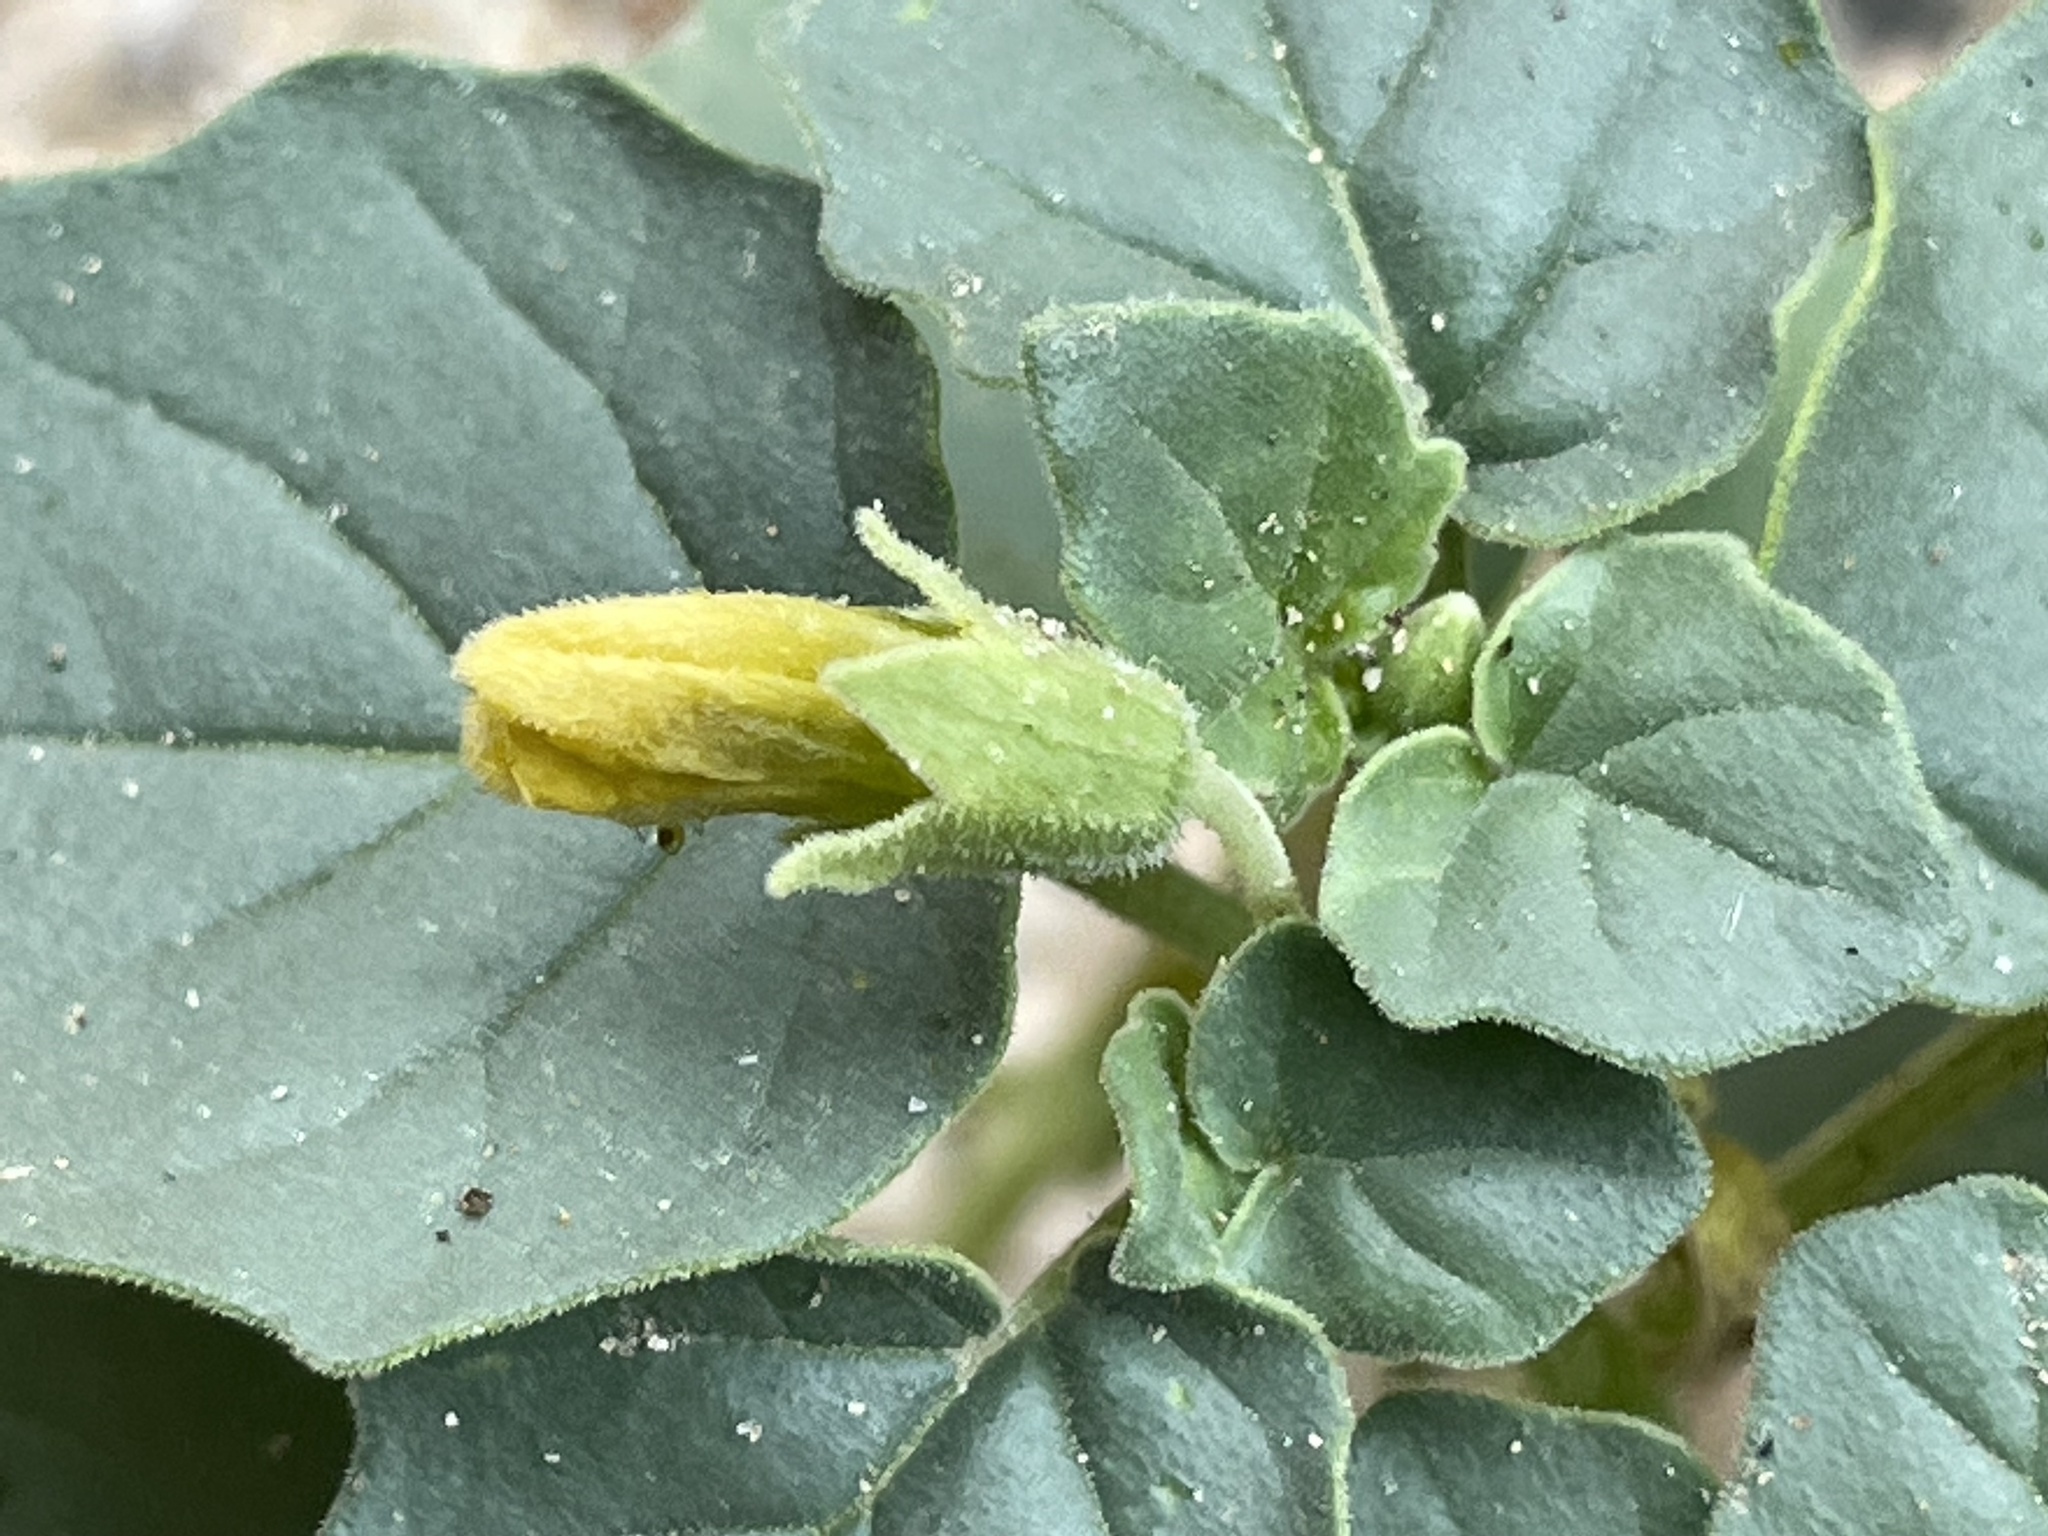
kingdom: Plantae
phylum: Tracheophyta
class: Magnoliopsida
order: Solanales
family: Solanaceae
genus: Physalis
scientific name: Physalis crassifolia
